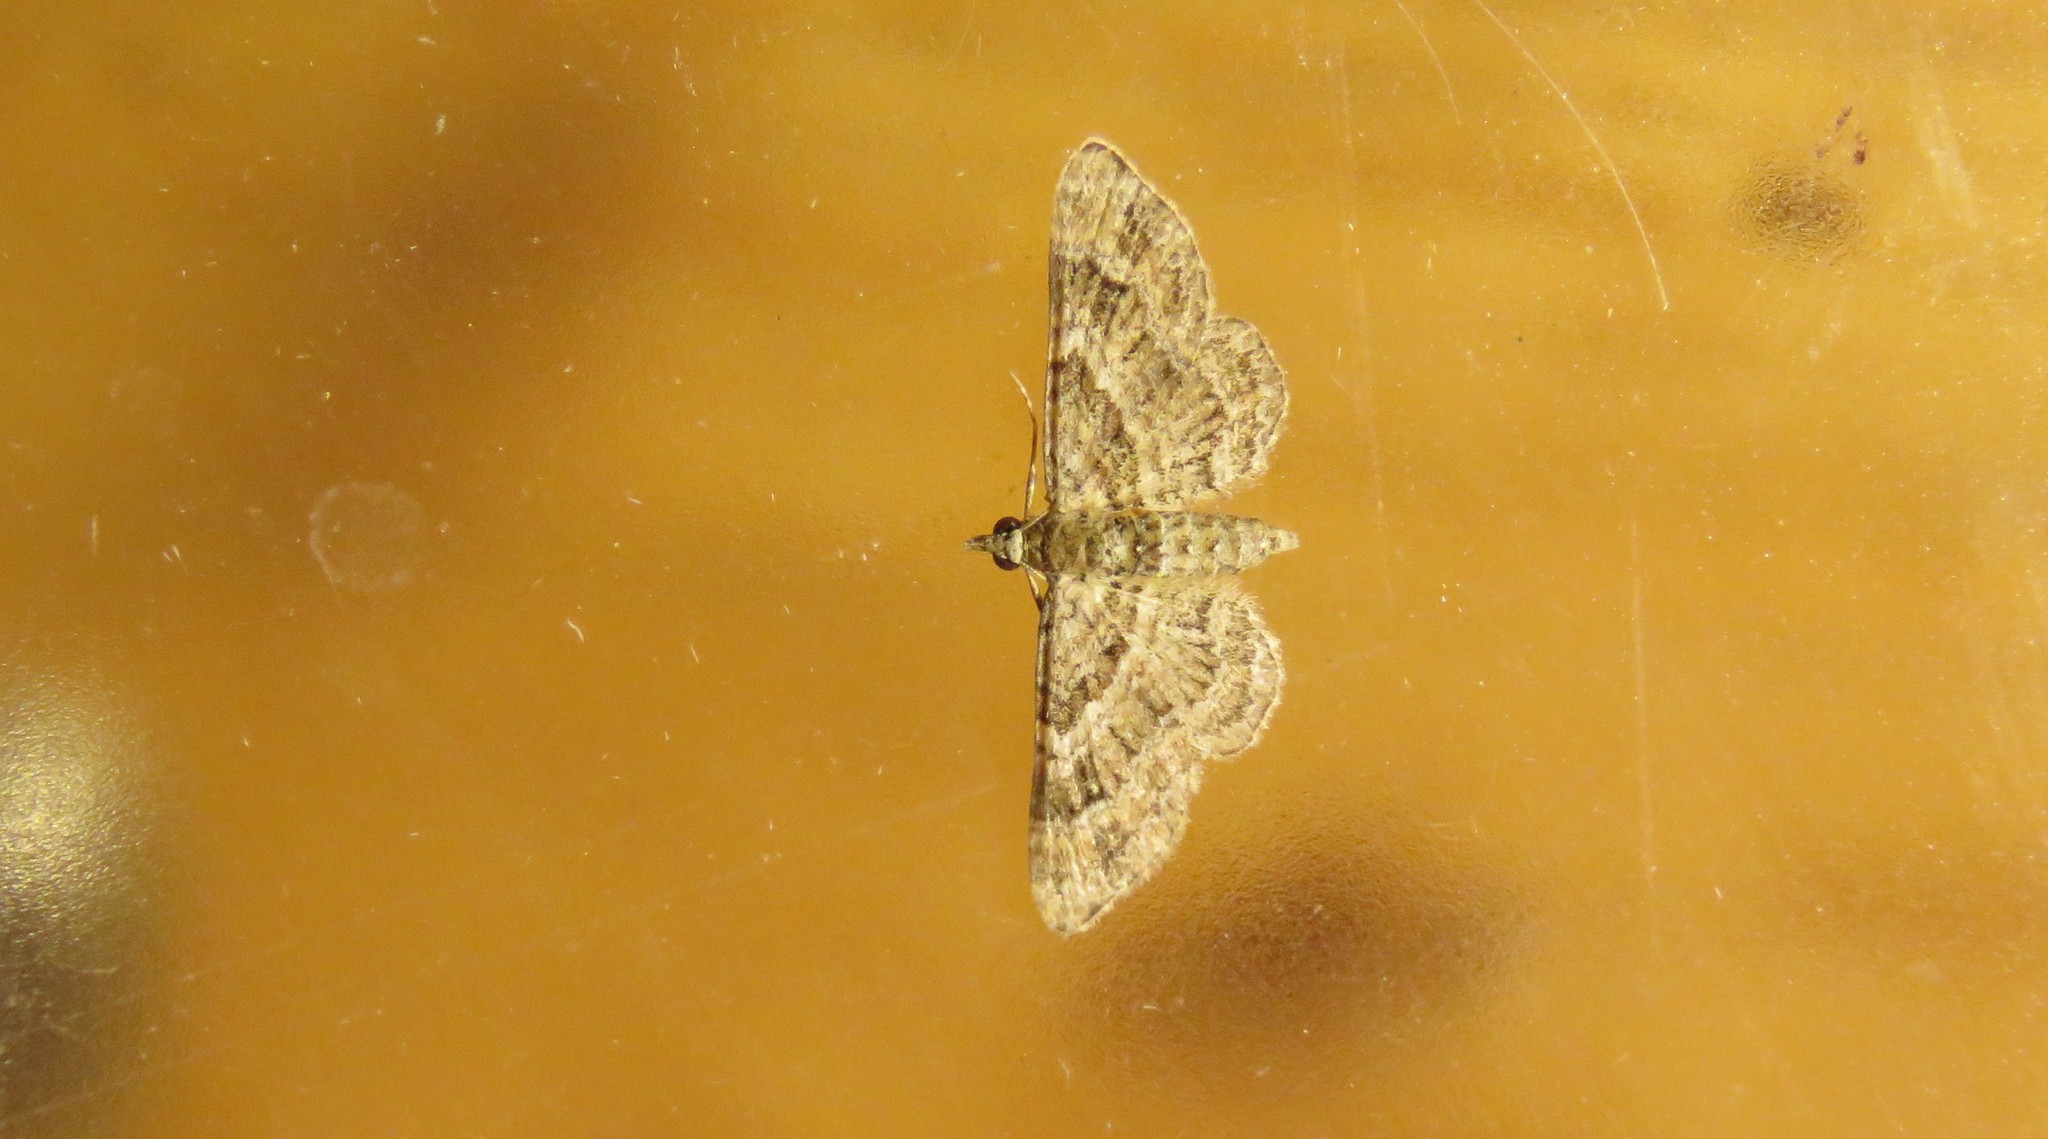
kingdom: Animalia
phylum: Arthropoda
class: Insecta
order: Lepidoptera
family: Geometridae
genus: Gymnoscelis
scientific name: Gymnoscelis rufifasciata
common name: Double-striped pug
